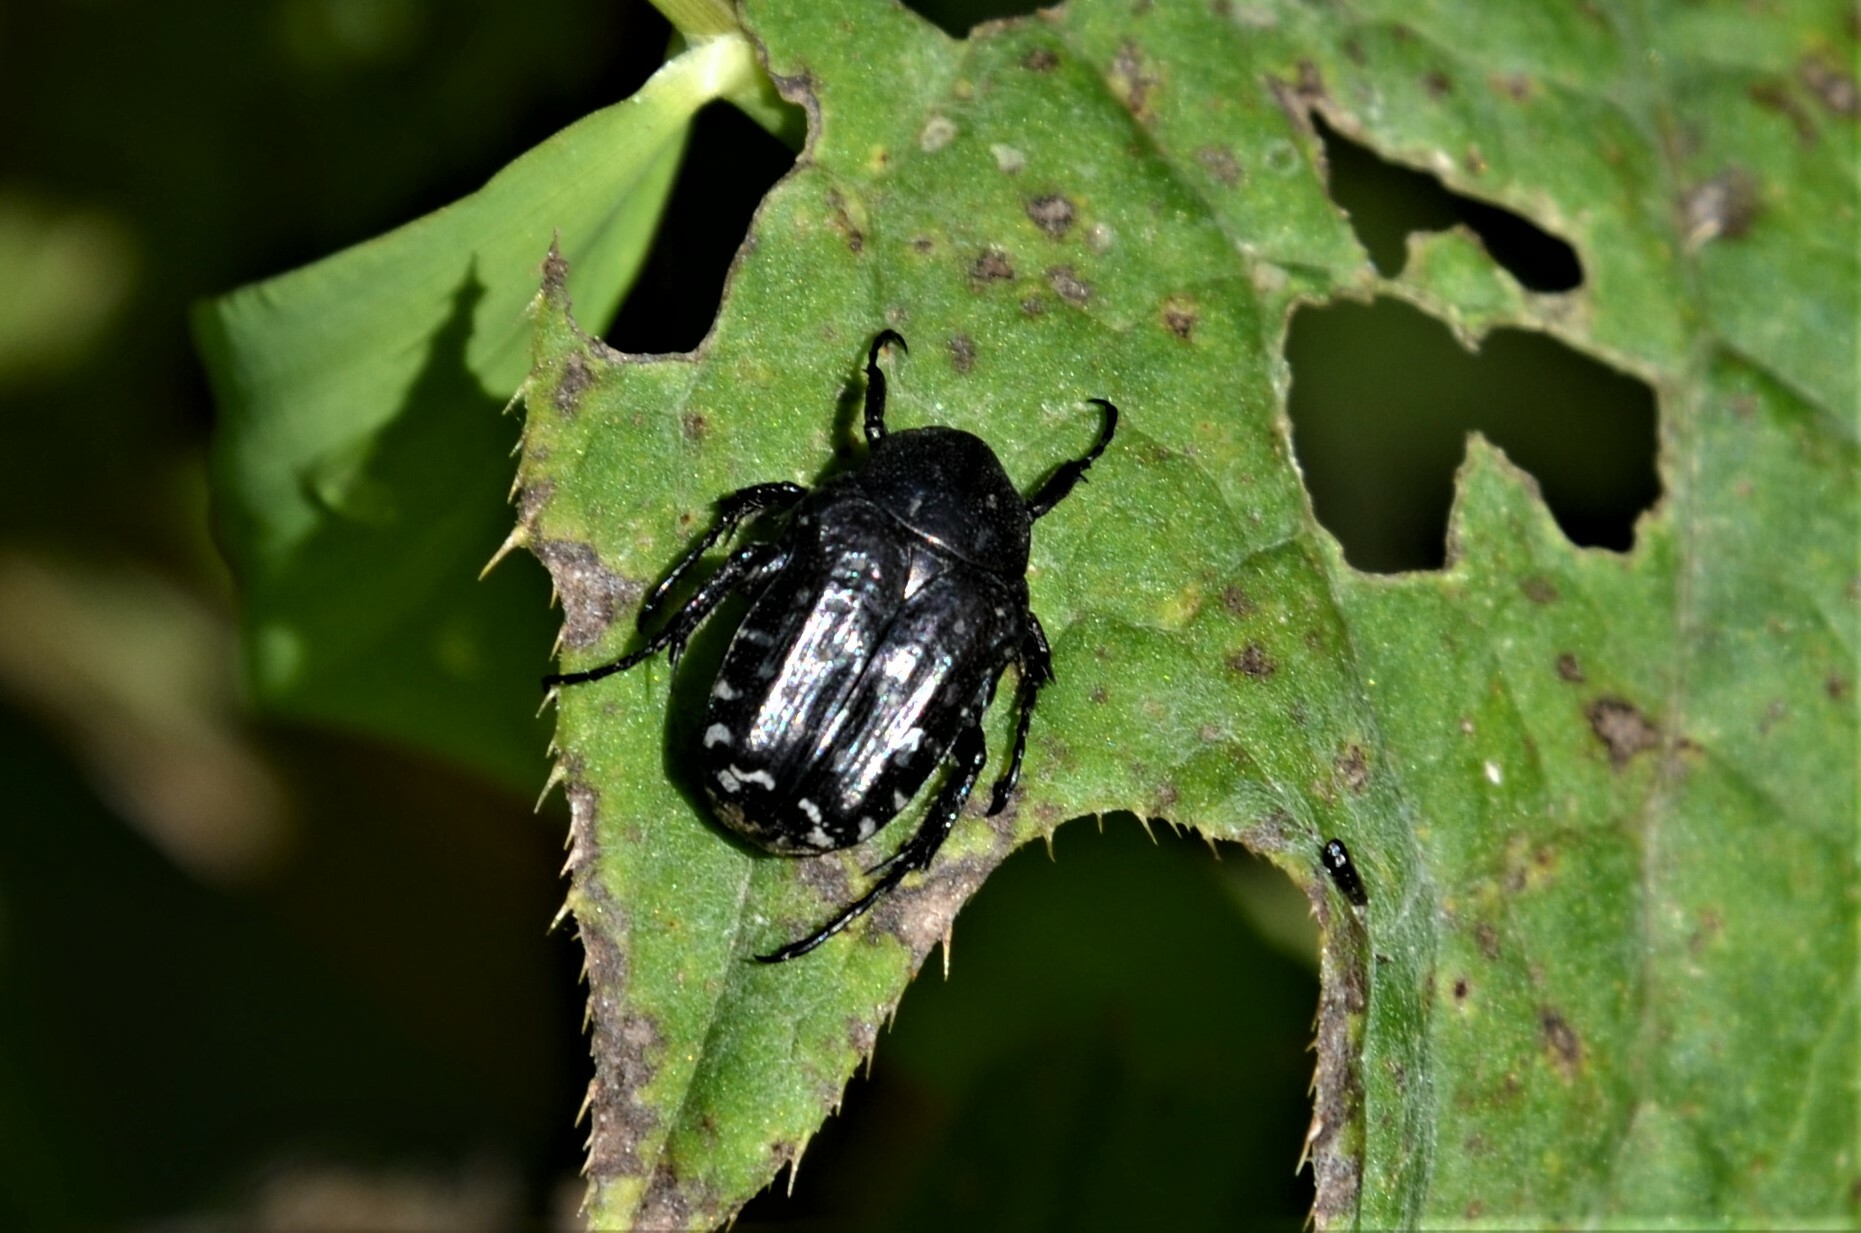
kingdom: Animalia
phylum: Arthropoda
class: Insecta
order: Coleoptera
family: Scarabaeidae
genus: Oxythyrea
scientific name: Oxythyrea funesta
